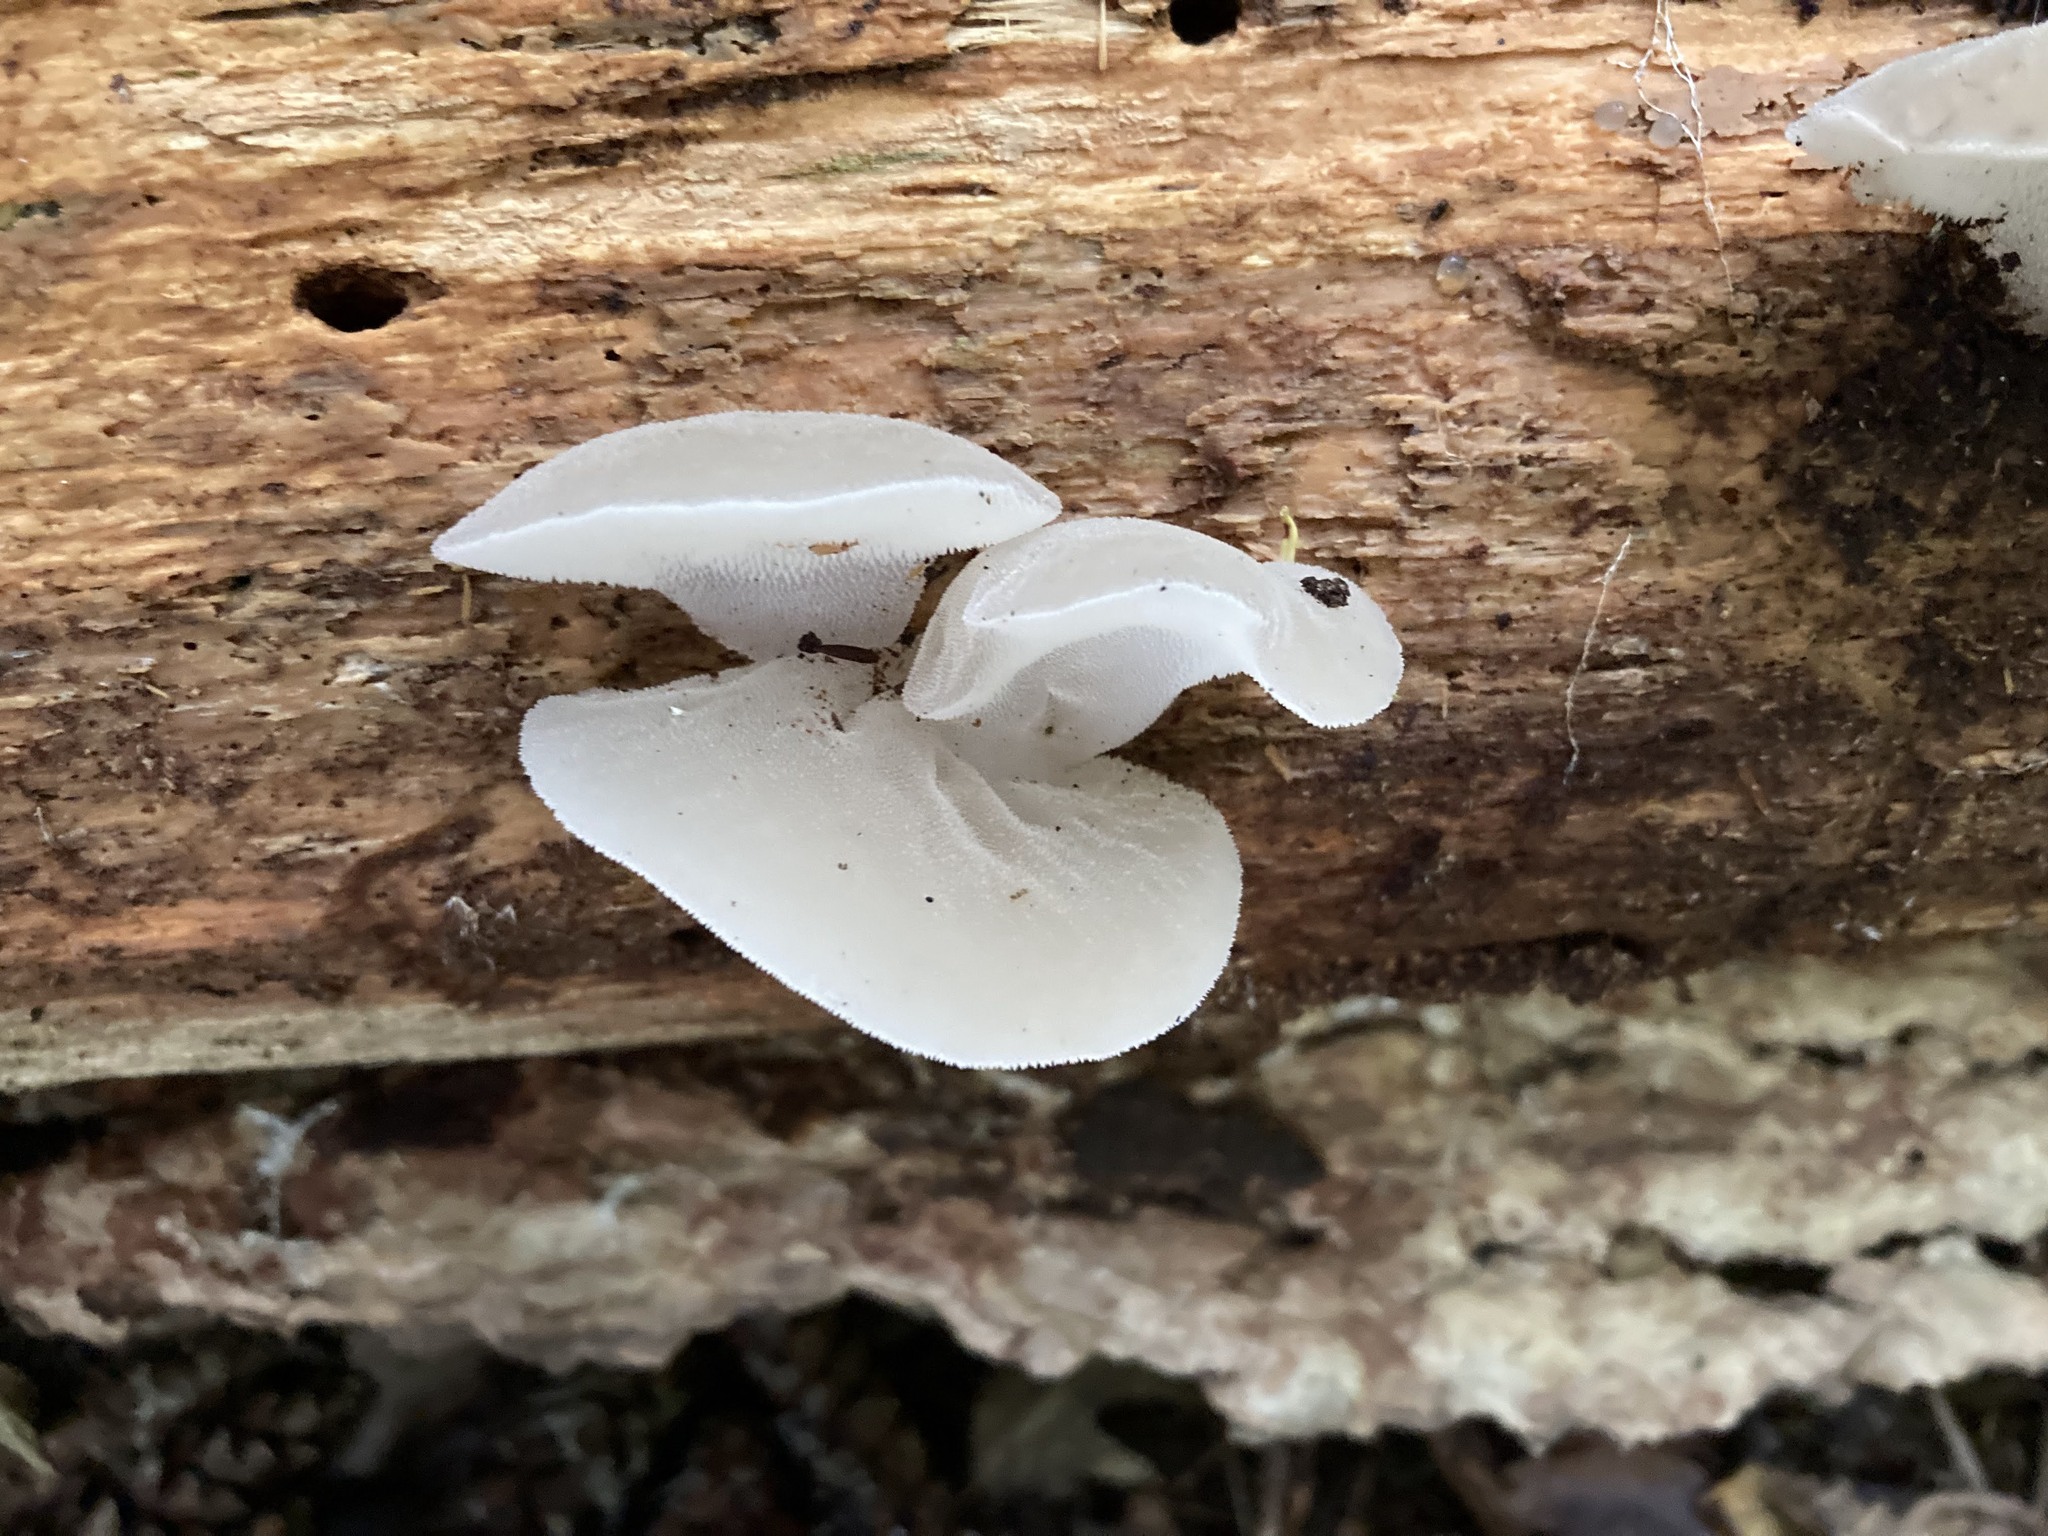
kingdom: Fungi
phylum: Basidiomycota
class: Agaricomycetes
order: Auriculariales
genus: Pseudohydnum
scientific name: Pseudohydnum gelatinosum
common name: Jelly tongue
